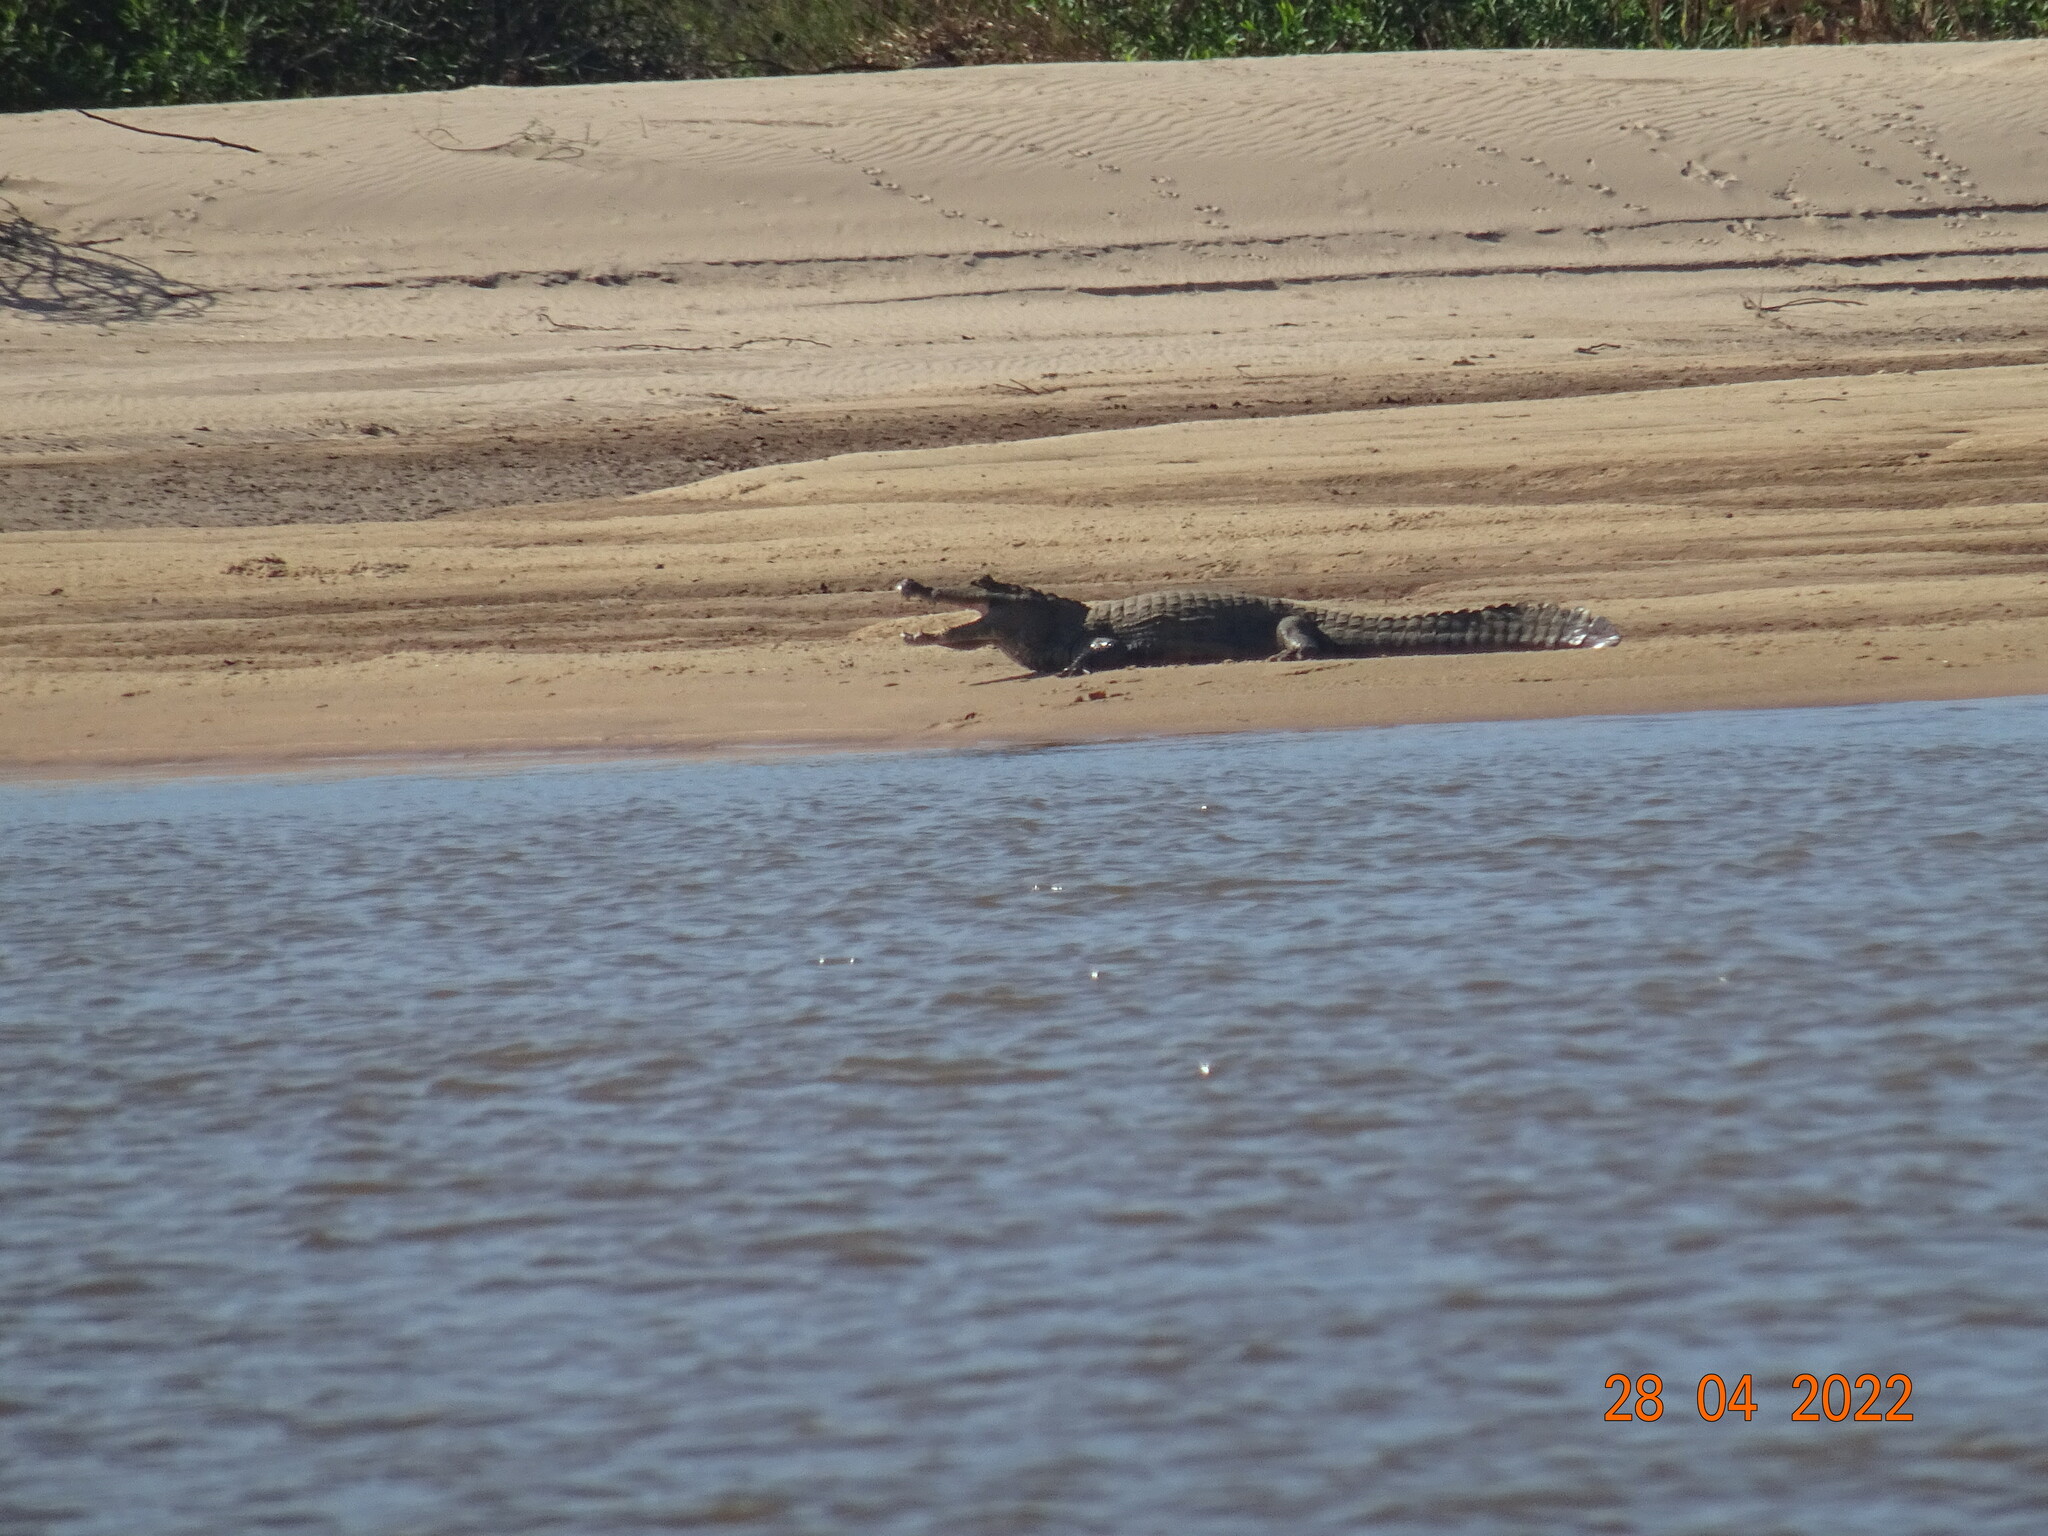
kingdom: Animalia
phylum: Chordata
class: Crocodylia
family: Alligatoridae
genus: Caiman
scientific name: Caiman crocodilus
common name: Common caiman
